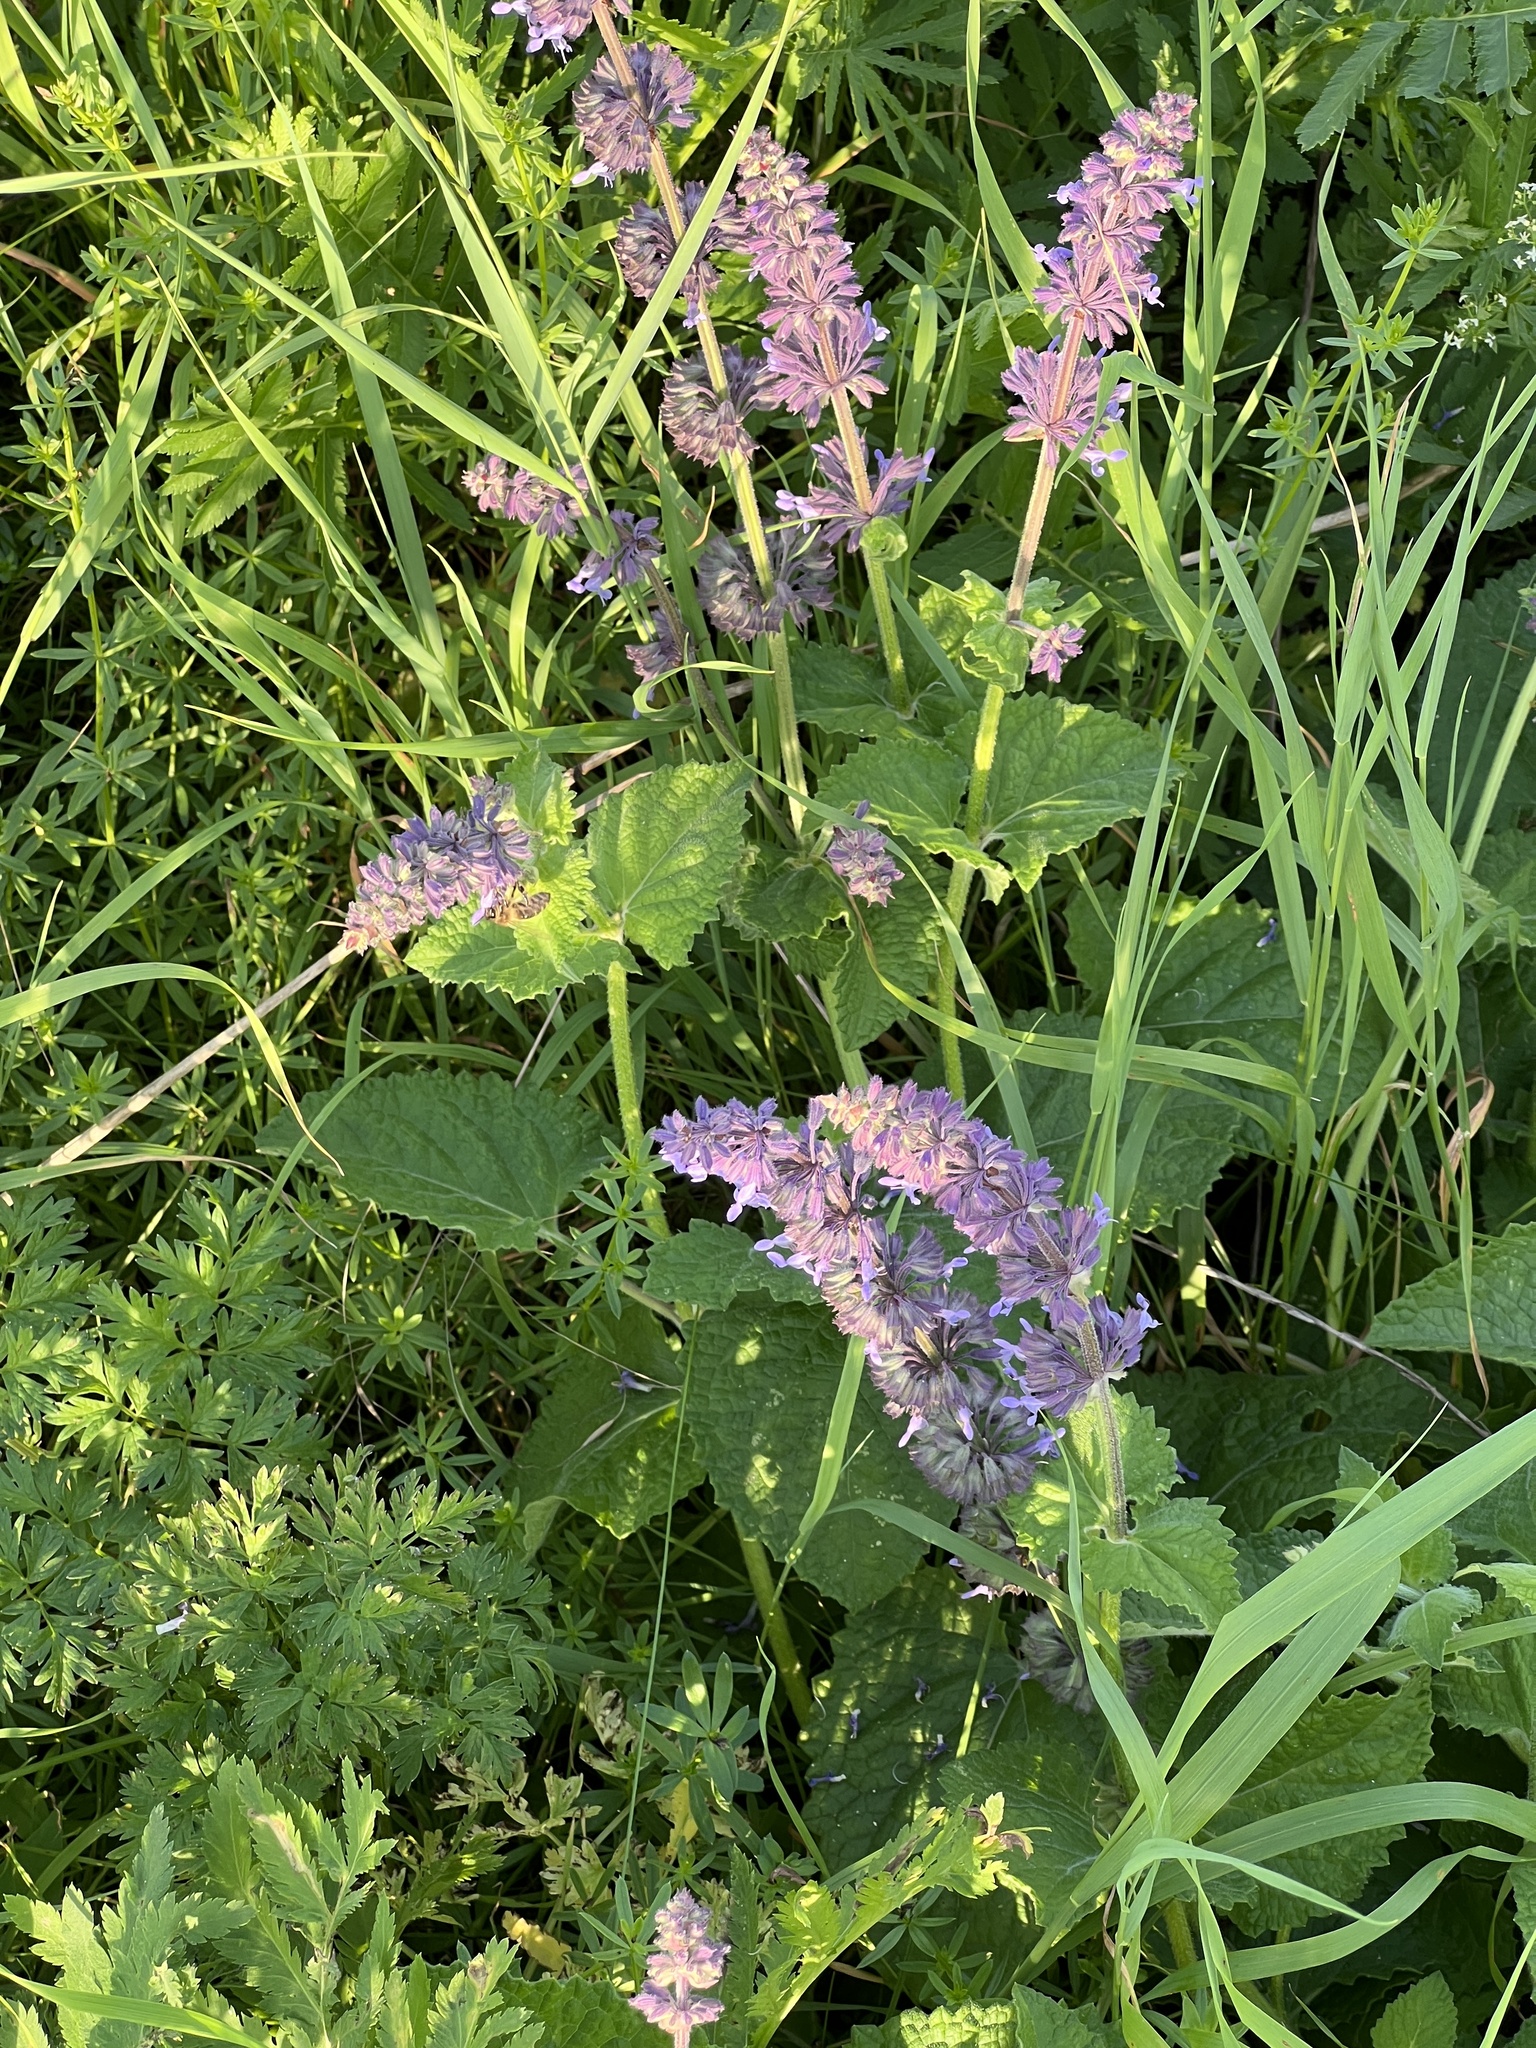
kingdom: Plantae
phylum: Tracheophyta
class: Magnoliopsida
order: Lamiales
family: Lamiaceae
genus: Salvia
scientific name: Salvia verticillata
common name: Whorled clary
